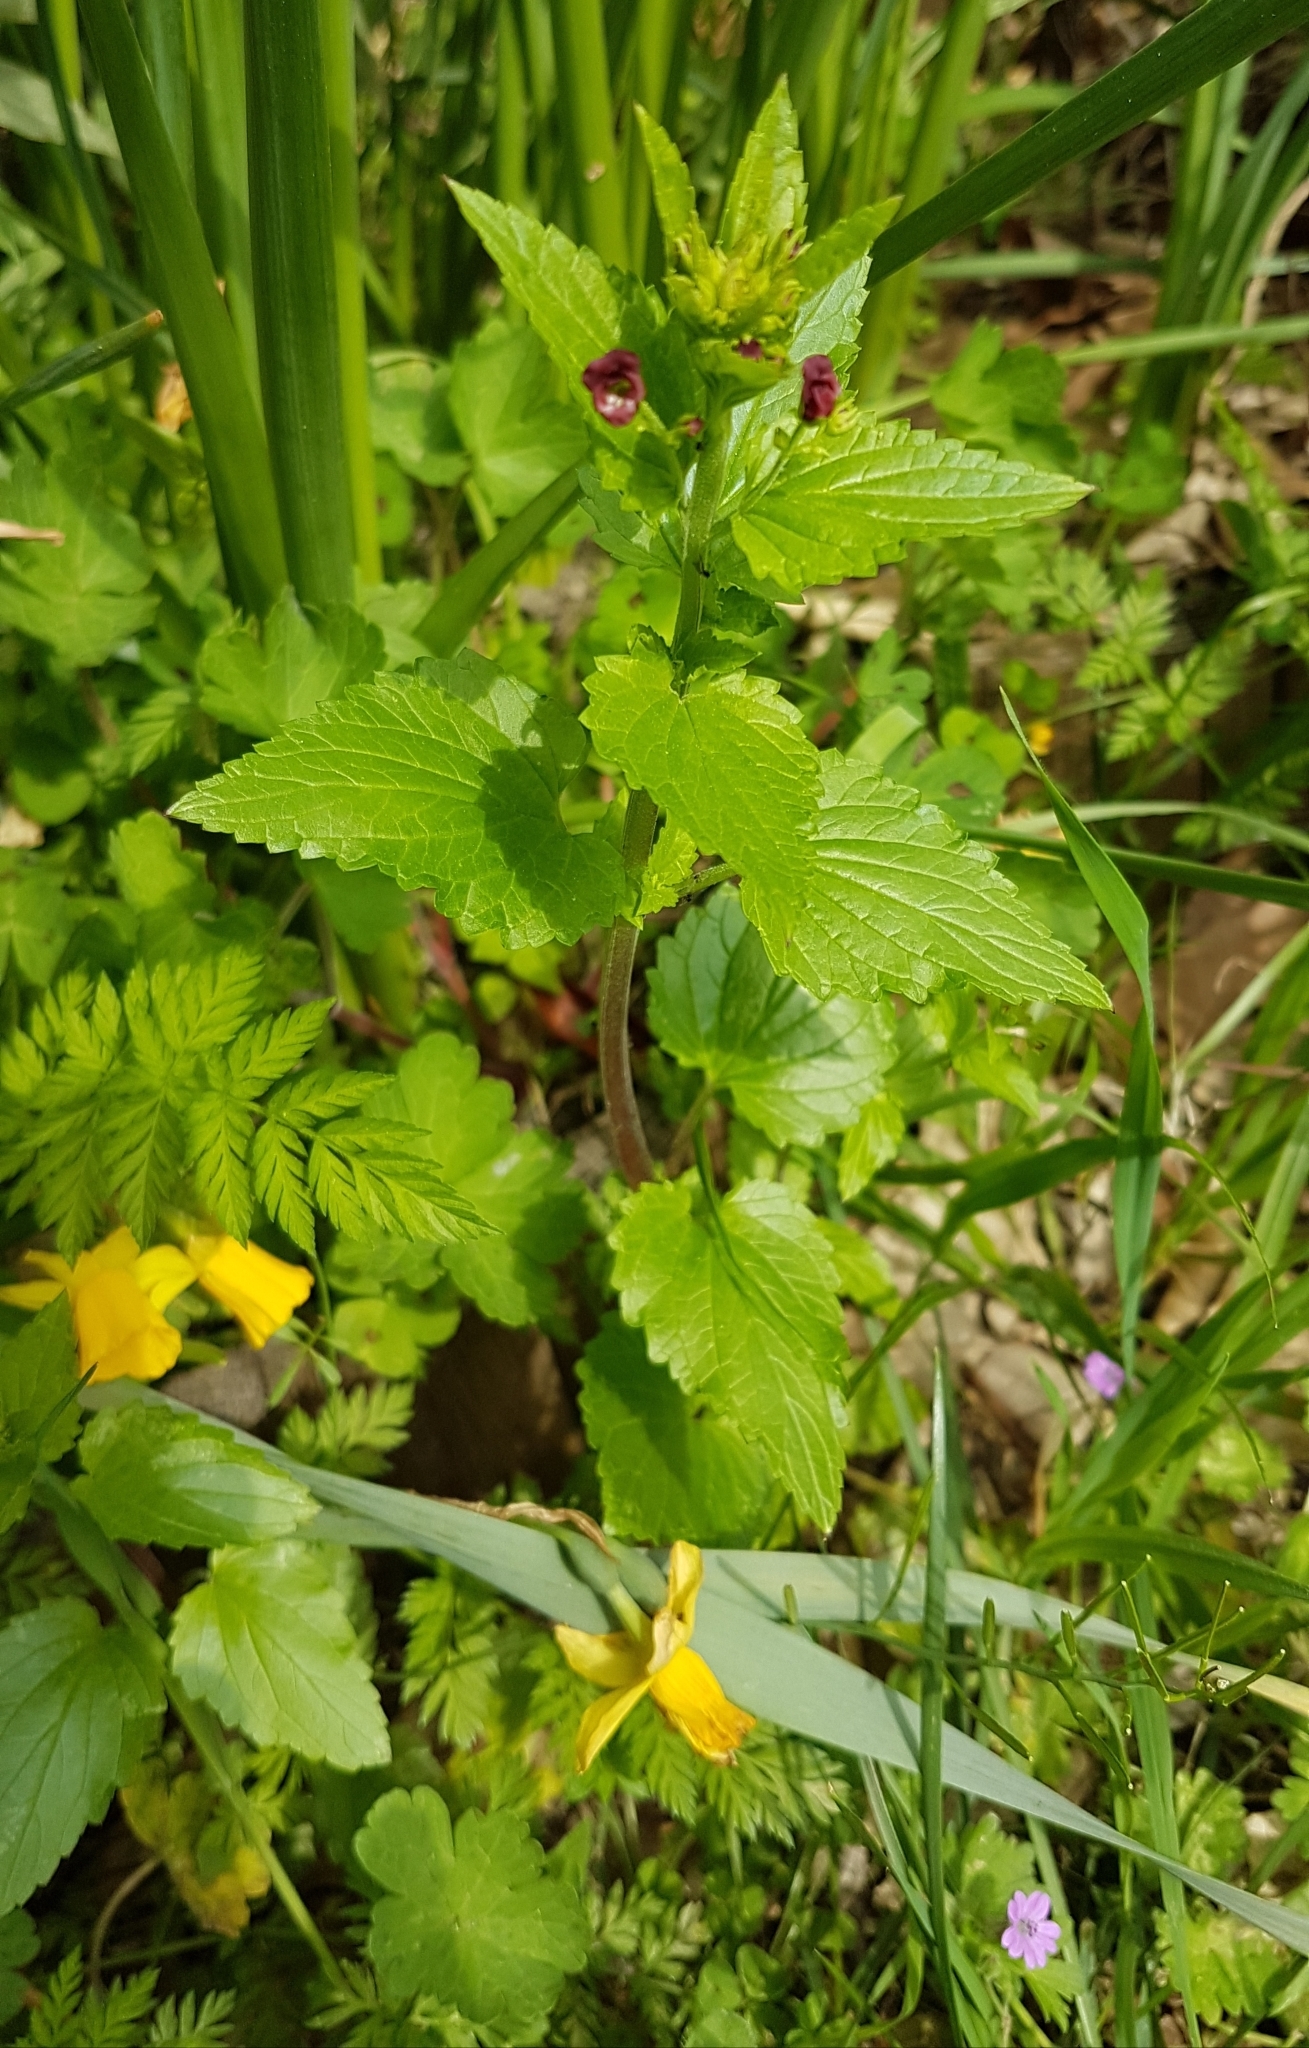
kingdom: Plantae
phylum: Tracheophyta
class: Magnoliopsida
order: Lamiales
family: Scrophulariaceae
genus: Scrophularia
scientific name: Scrophularia peregrina
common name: Mediterranean figwort
